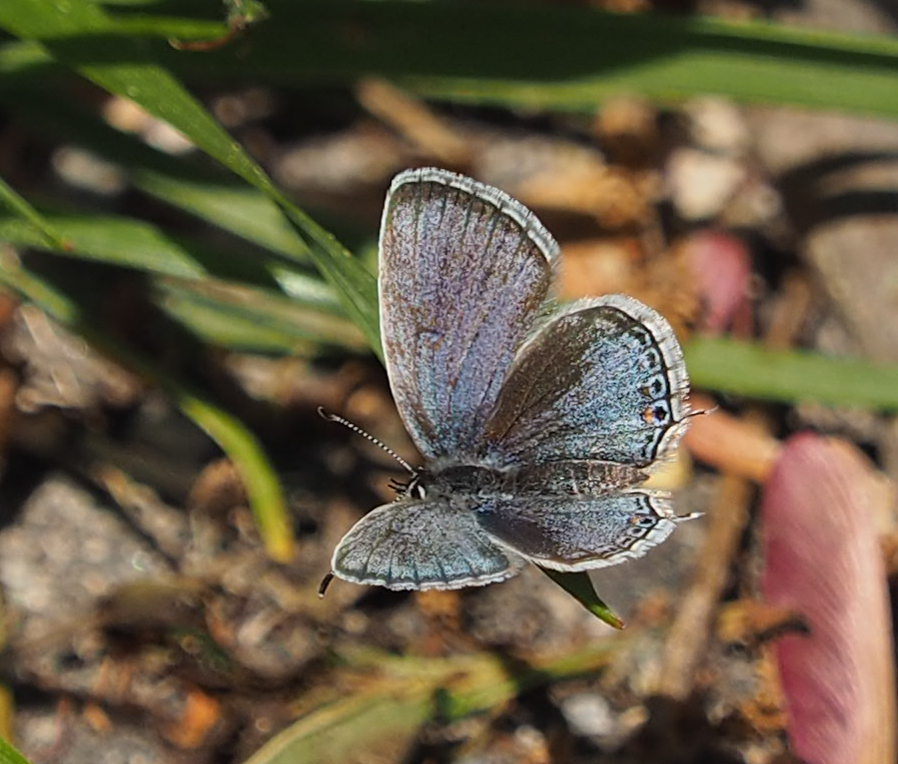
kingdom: Animalia
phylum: Arthropoda
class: Insecta
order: Lepidoptera
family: Lycaenidae
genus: Elkalyce
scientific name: Elkalyce comyntas
